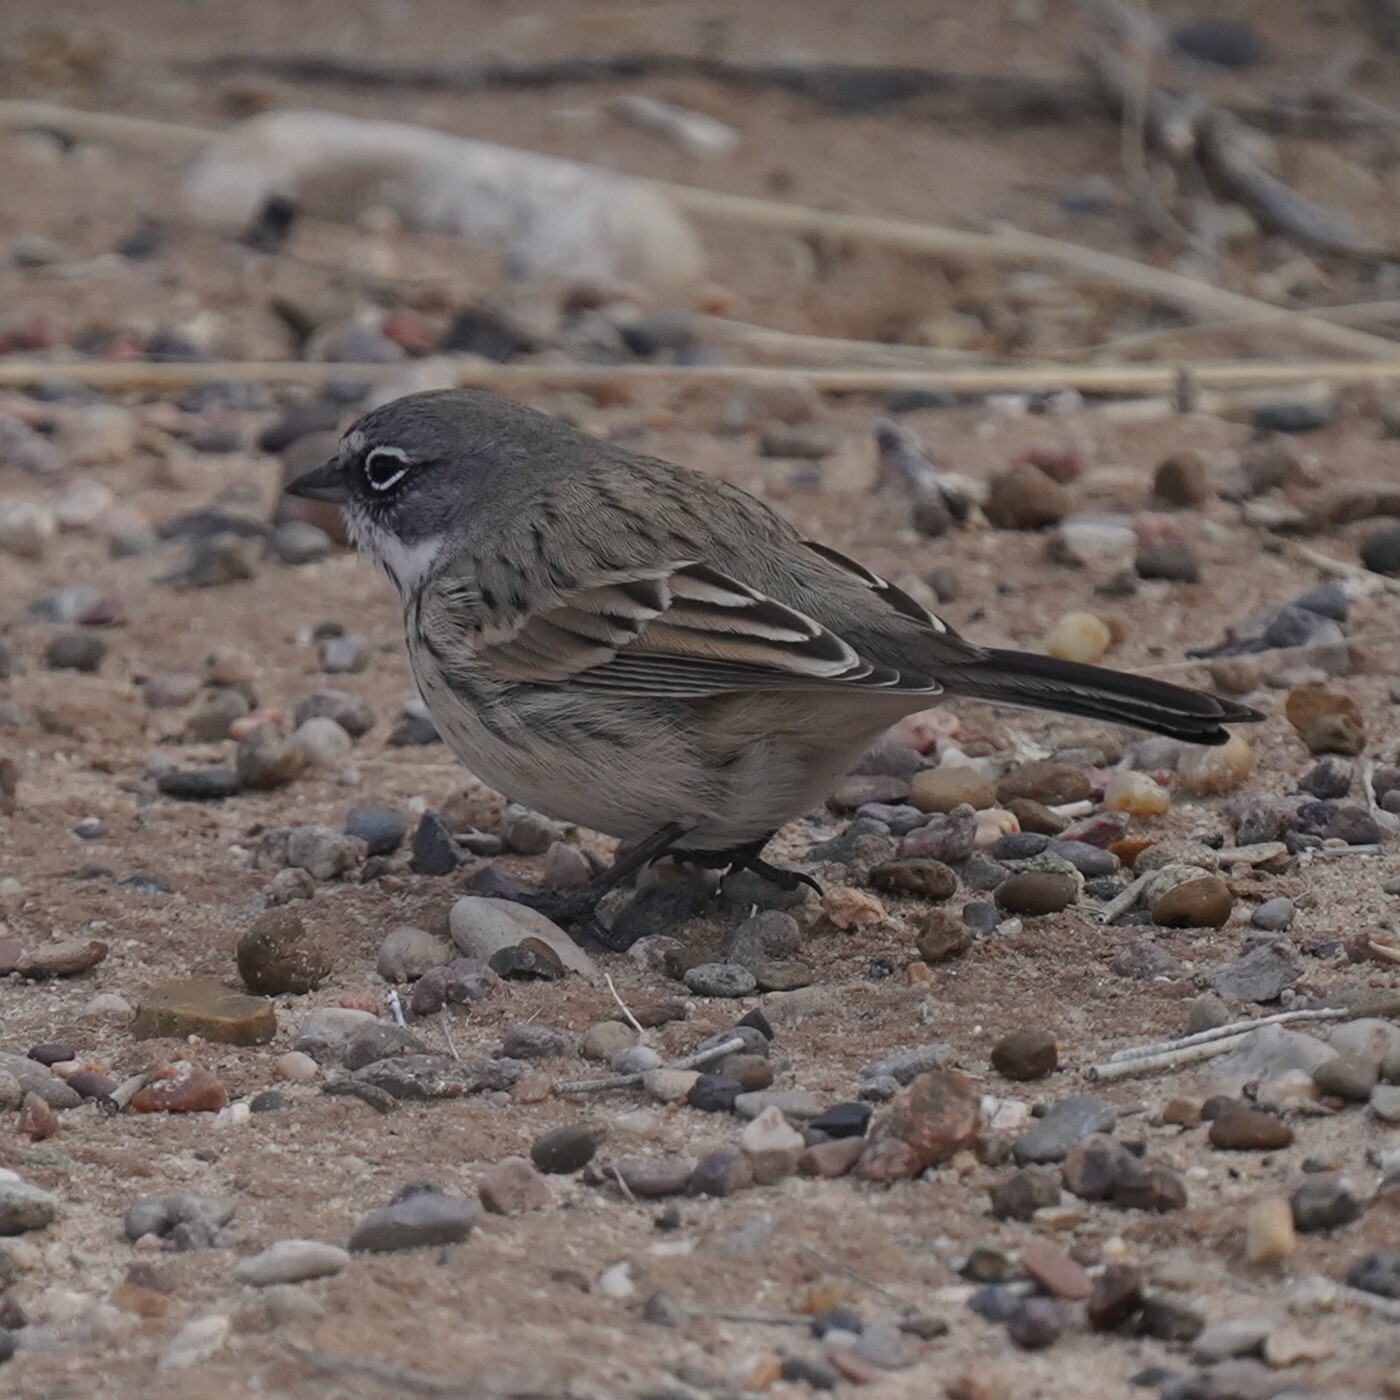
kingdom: Animalia
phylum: Chordata
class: Aves
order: Passeriformes
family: Passerellidae
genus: Artemisiospiza
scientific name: Artemisiospiza nevadensis
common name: Sagebrush sparrow
